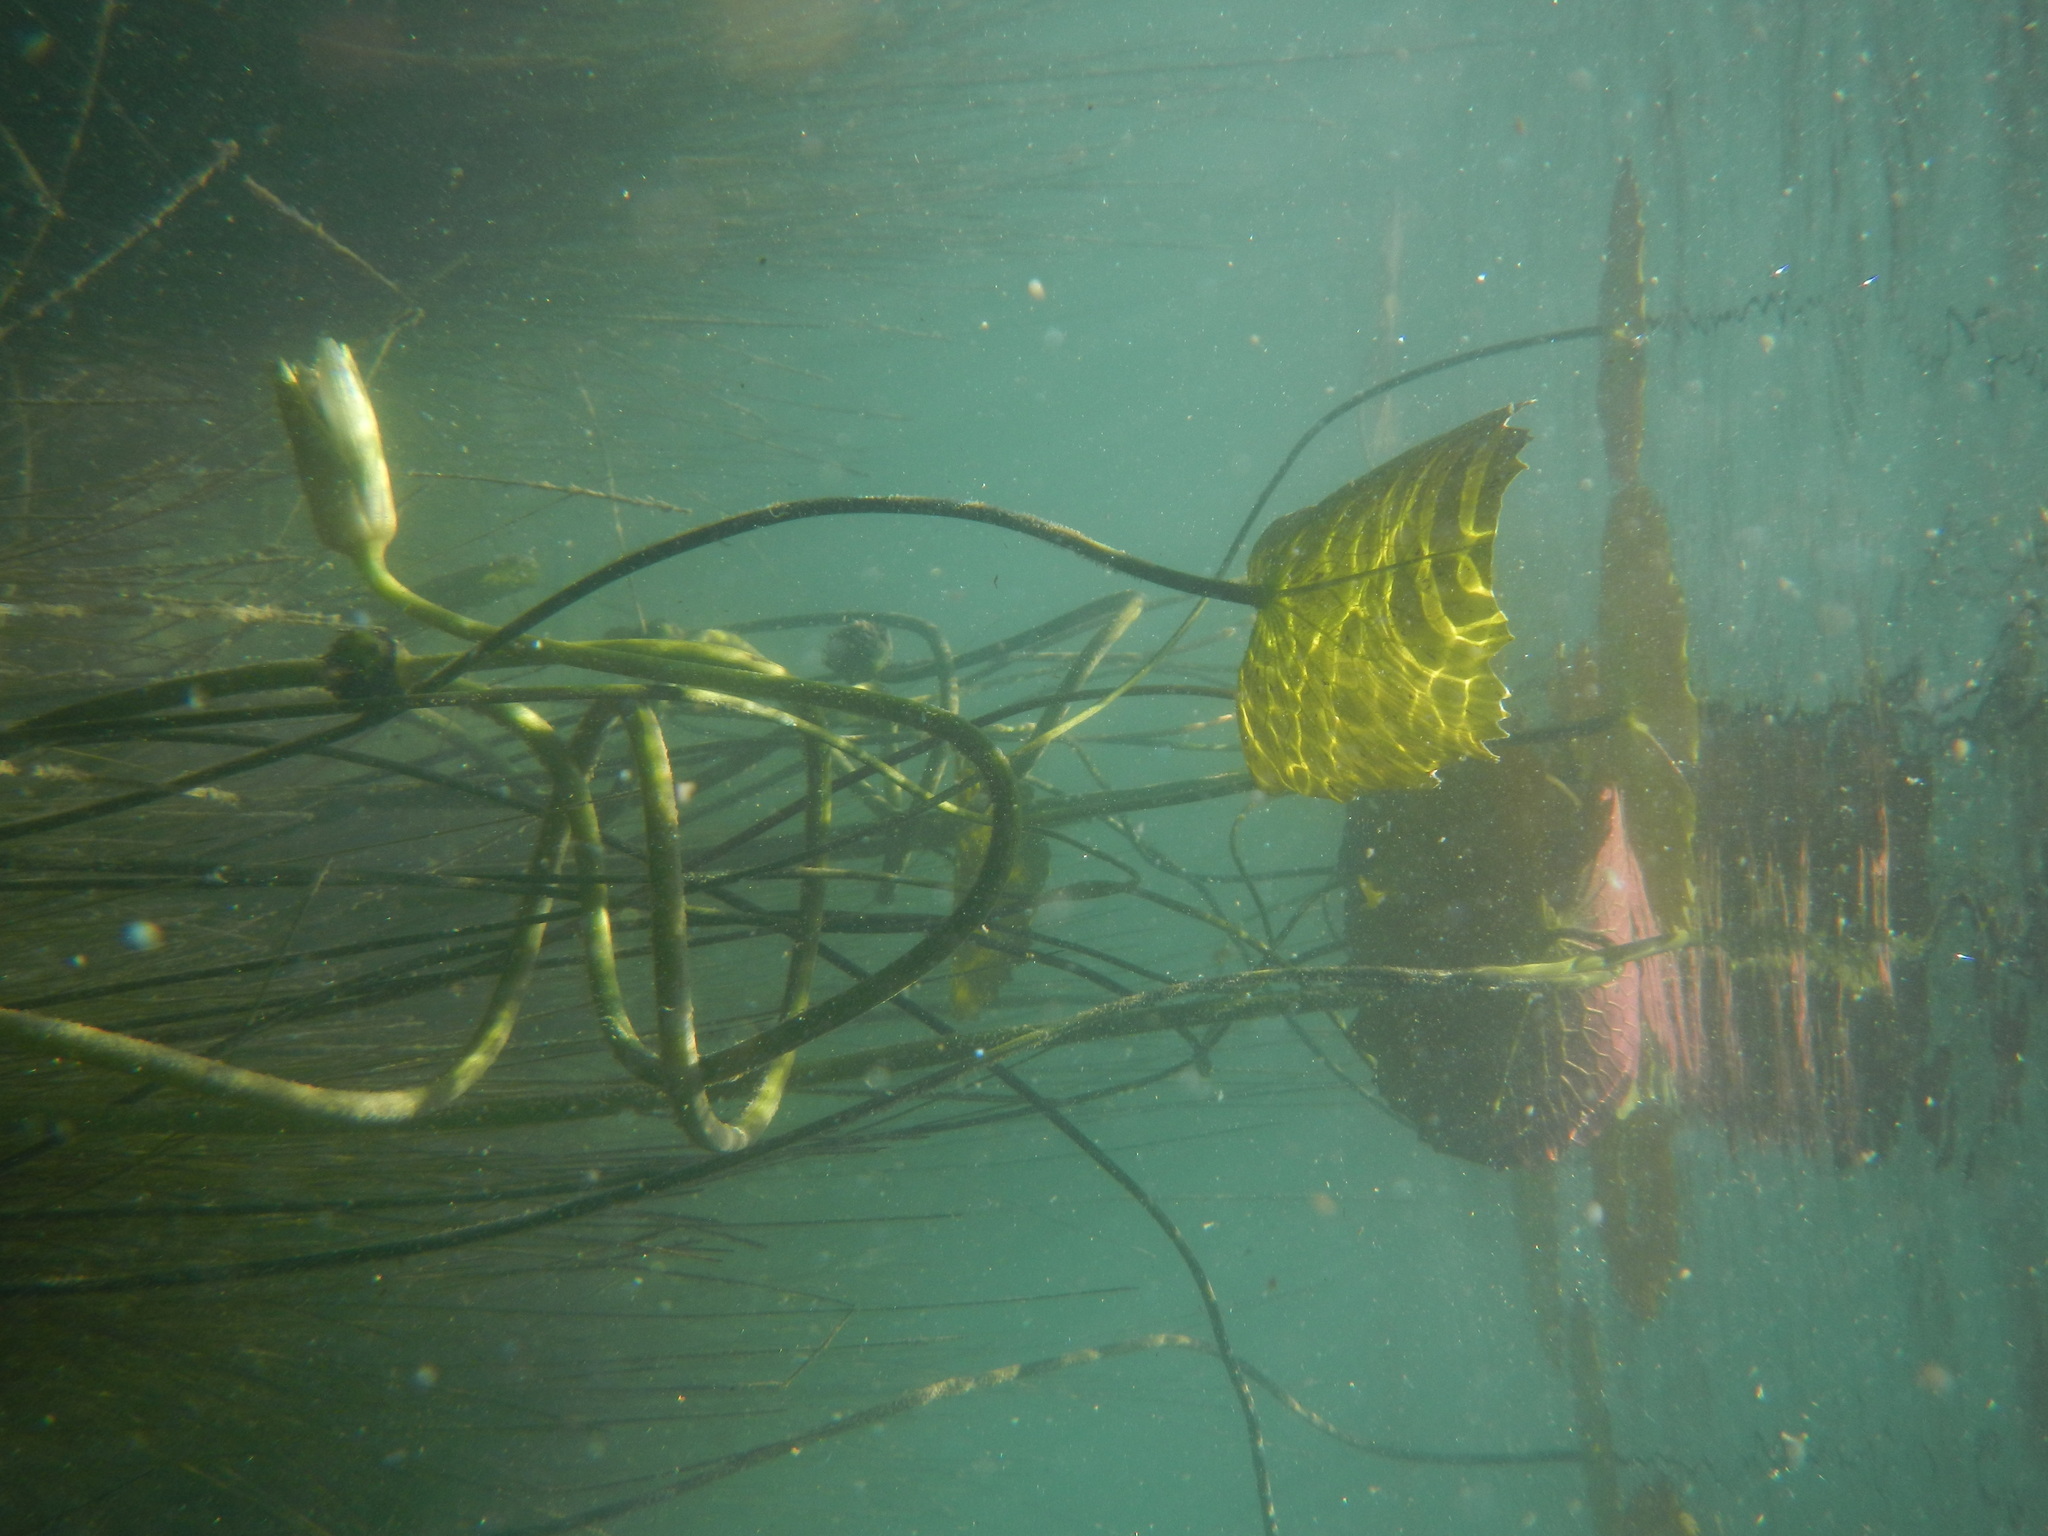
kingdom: Plantae
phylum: Tracheophyta
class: Magnoliopsida
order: Nymphaeales
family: Nymphaeaceae
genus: Nymphaea
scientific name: Nymphaea ampla
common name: Dotleaf waterlily
